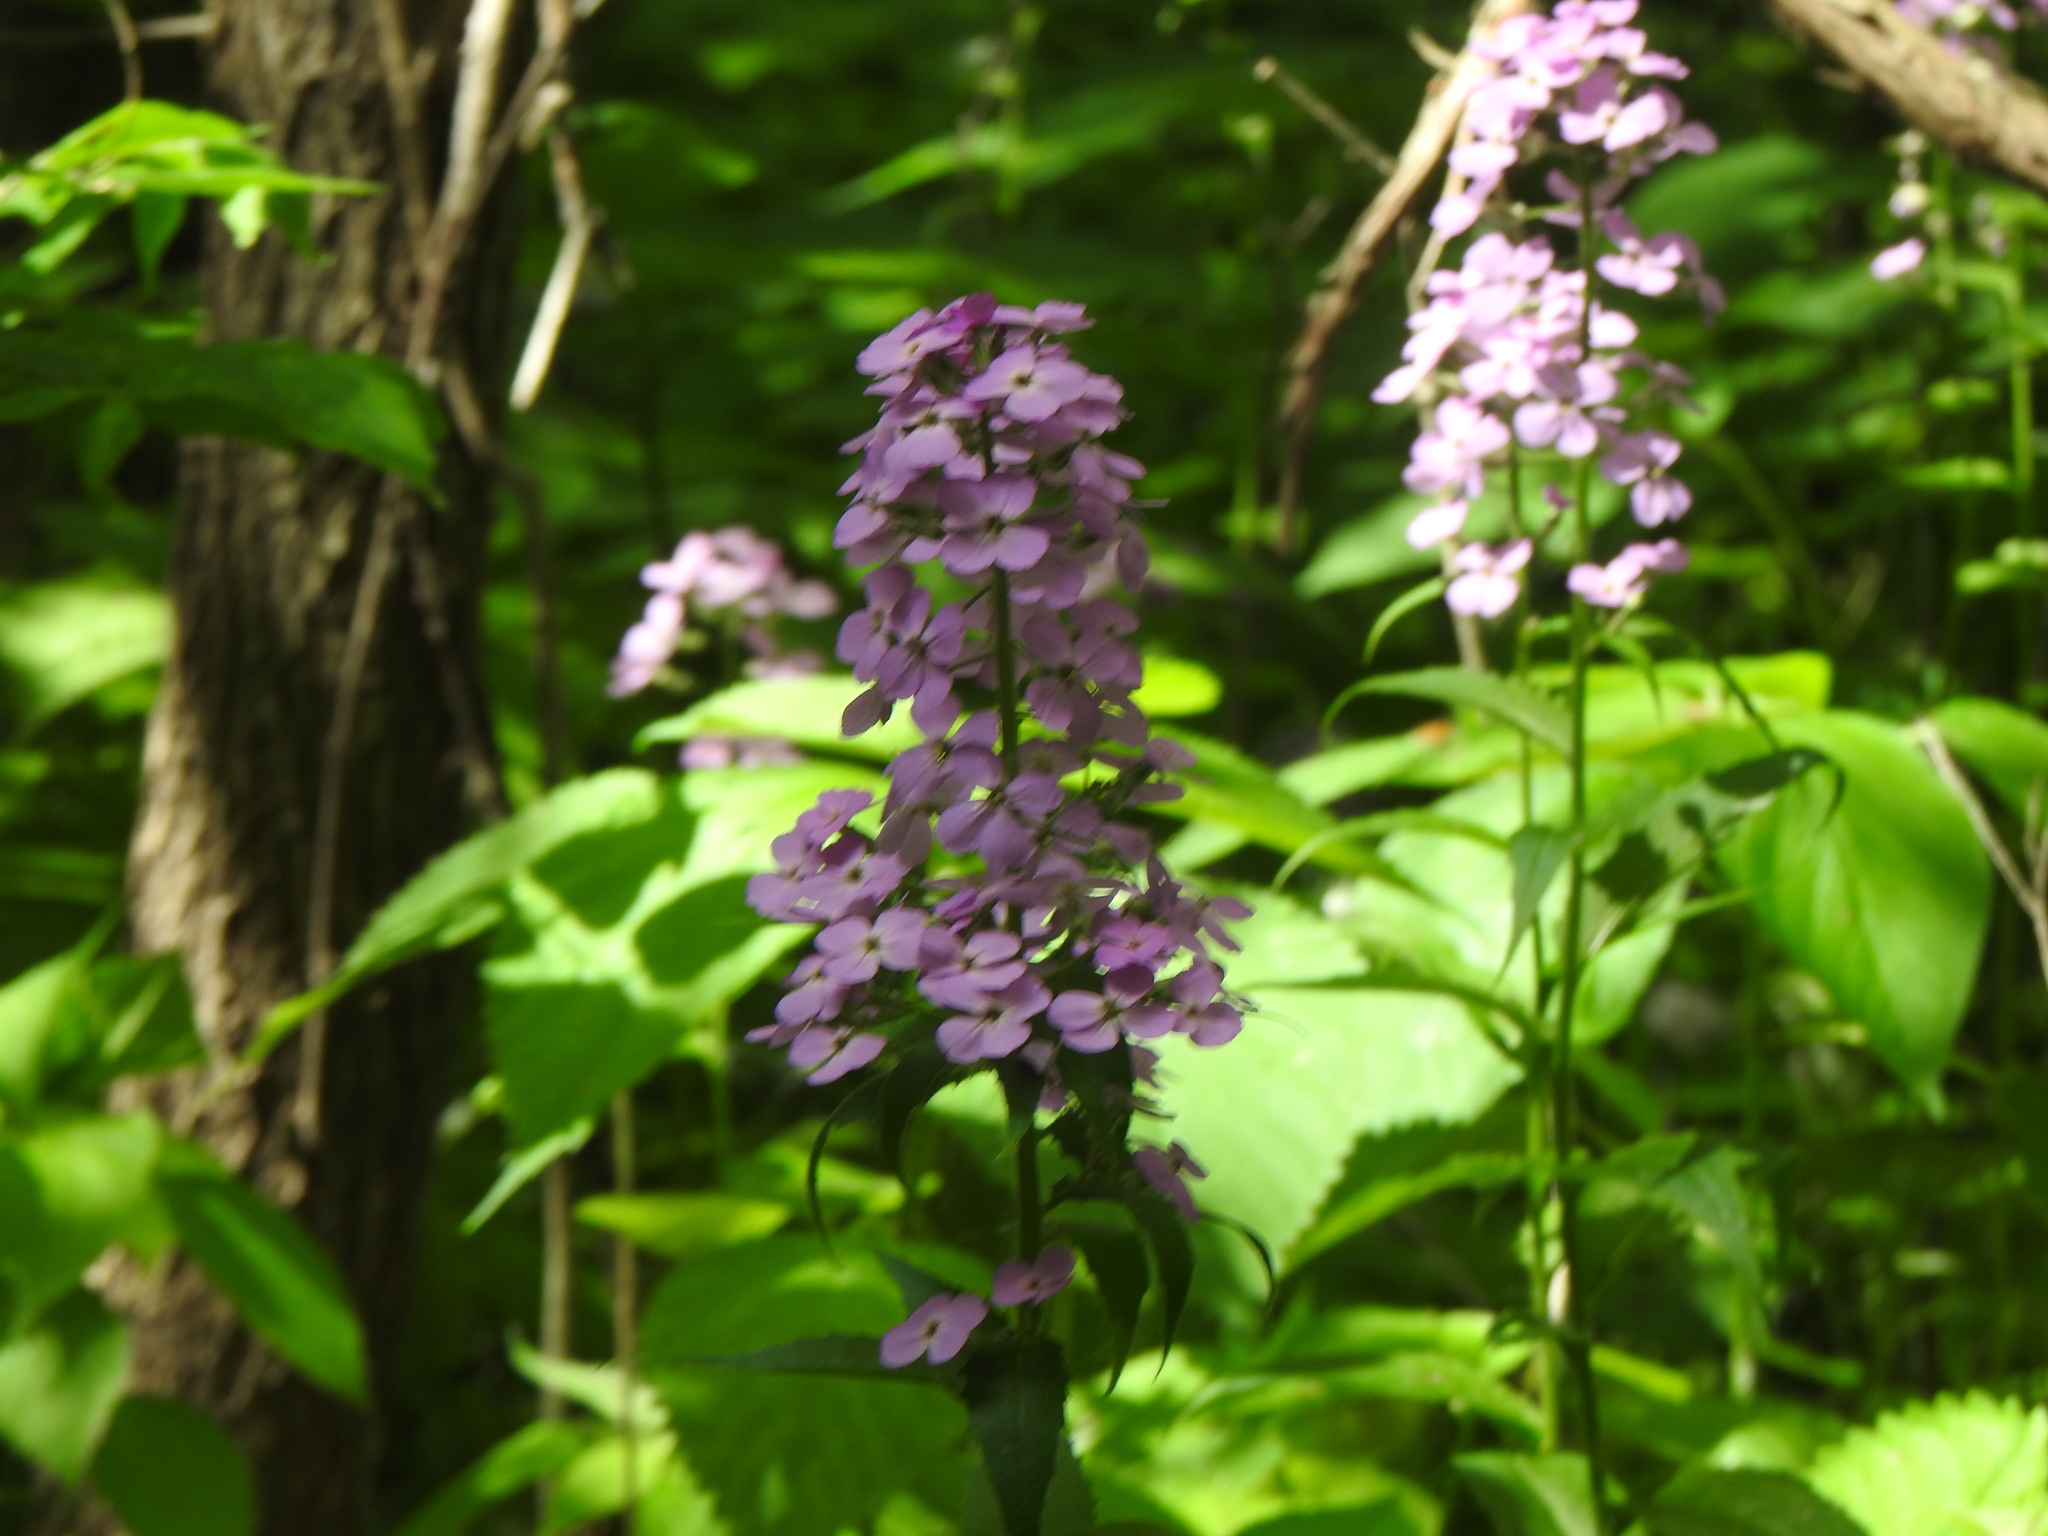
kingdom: Plantae
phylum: Tracheophyta
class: Magnoliopsida
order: Brassicales
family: Brassicaceae
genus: Hesperis
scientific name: Hesperis matronalis
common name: Dame's-violet
